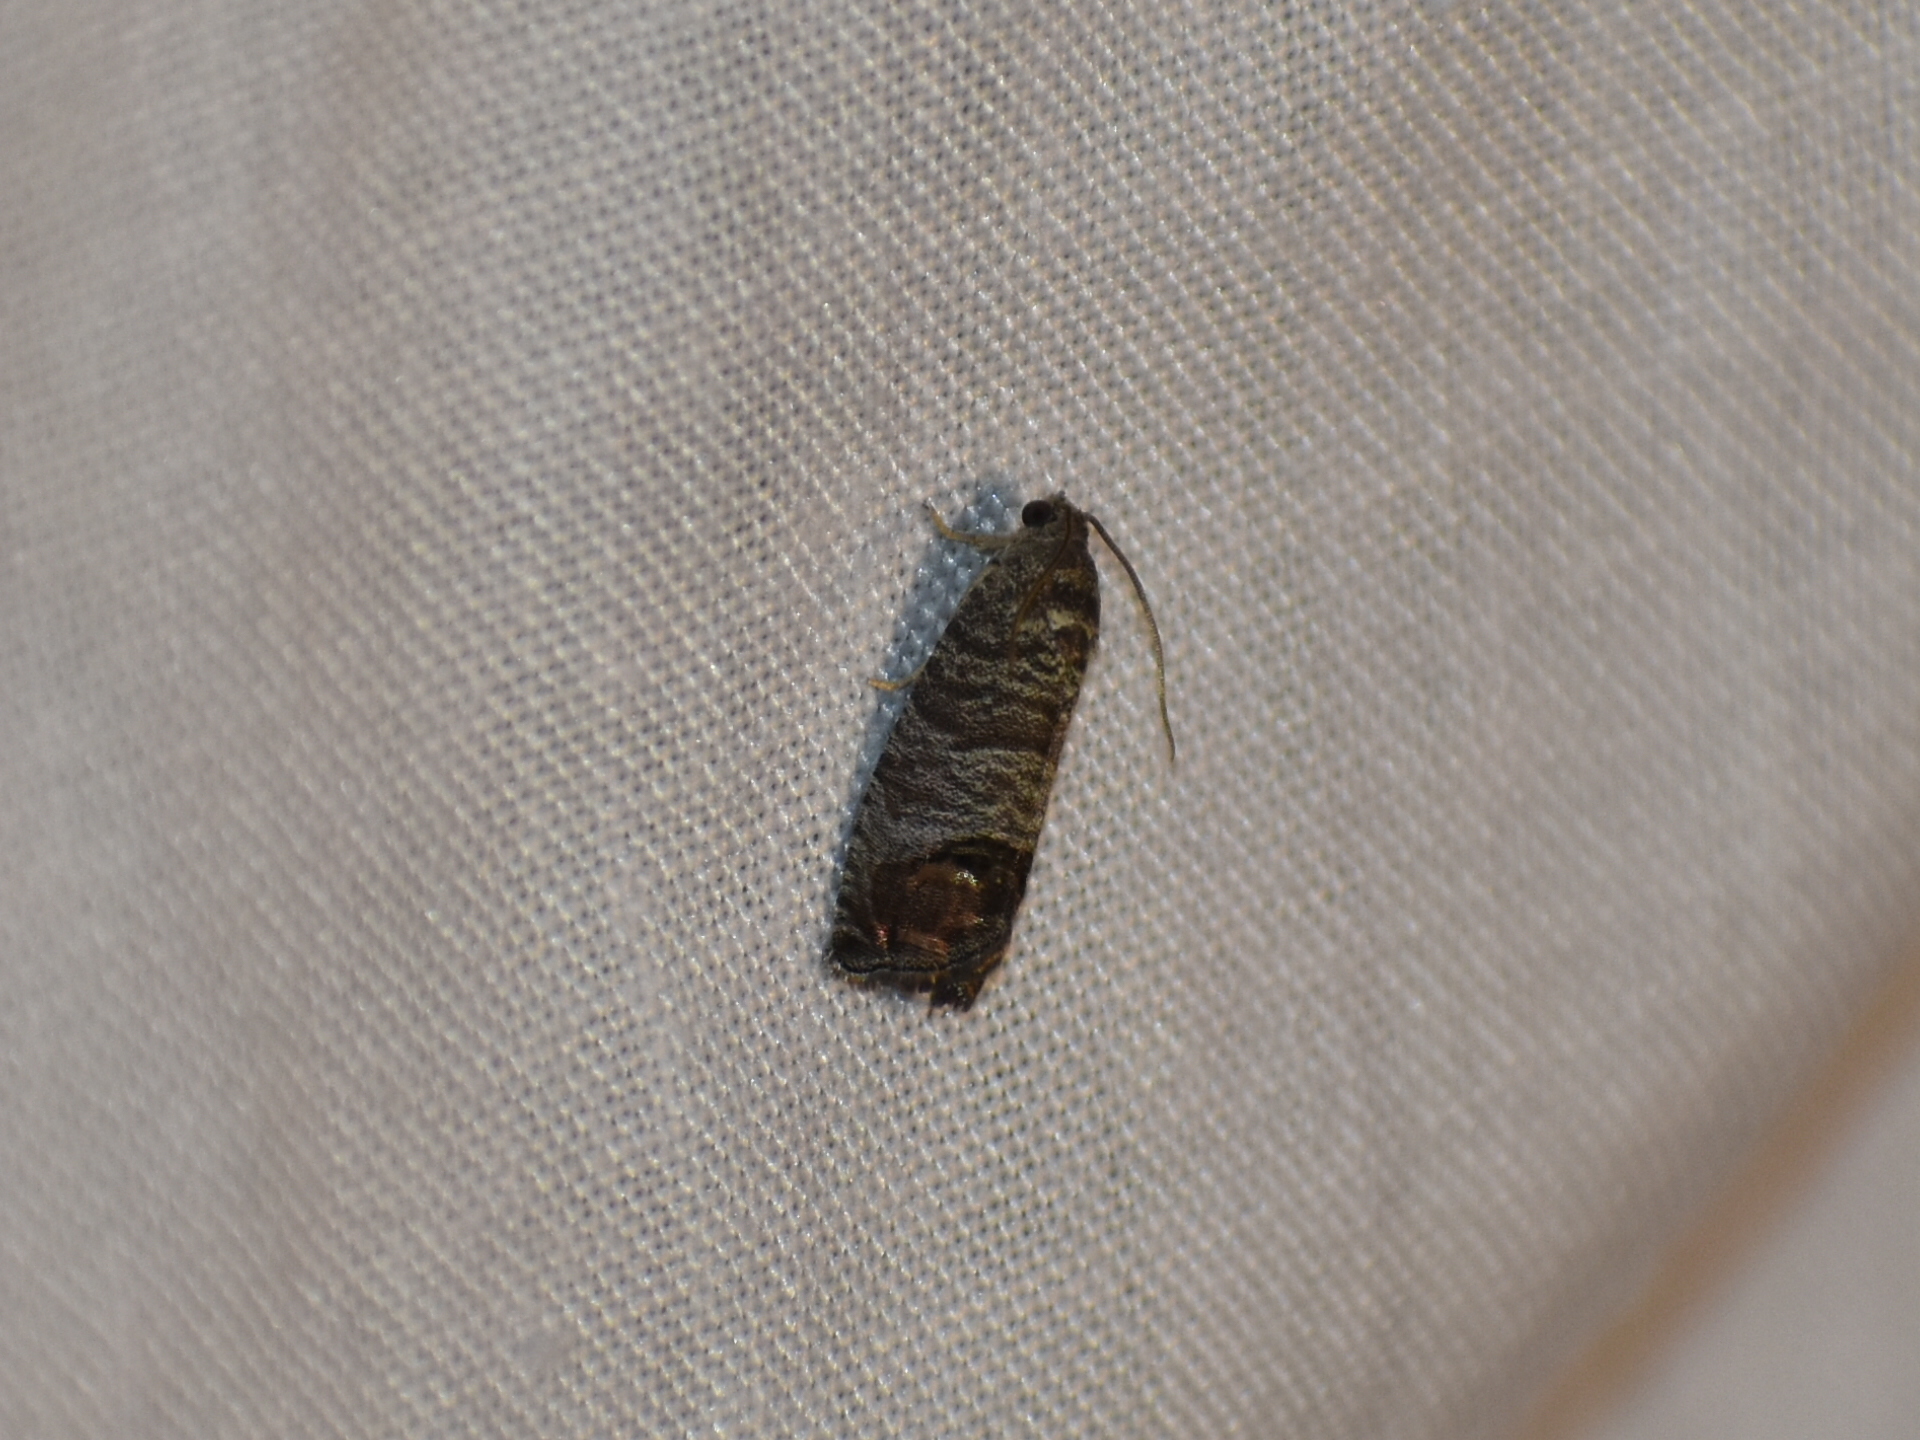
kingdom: Animalia
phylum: Arthropoda
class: Insecta
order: Lepidoptera
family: Tortricidae
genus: Cydia
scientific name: Cydia pomonella
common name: Codling moth
